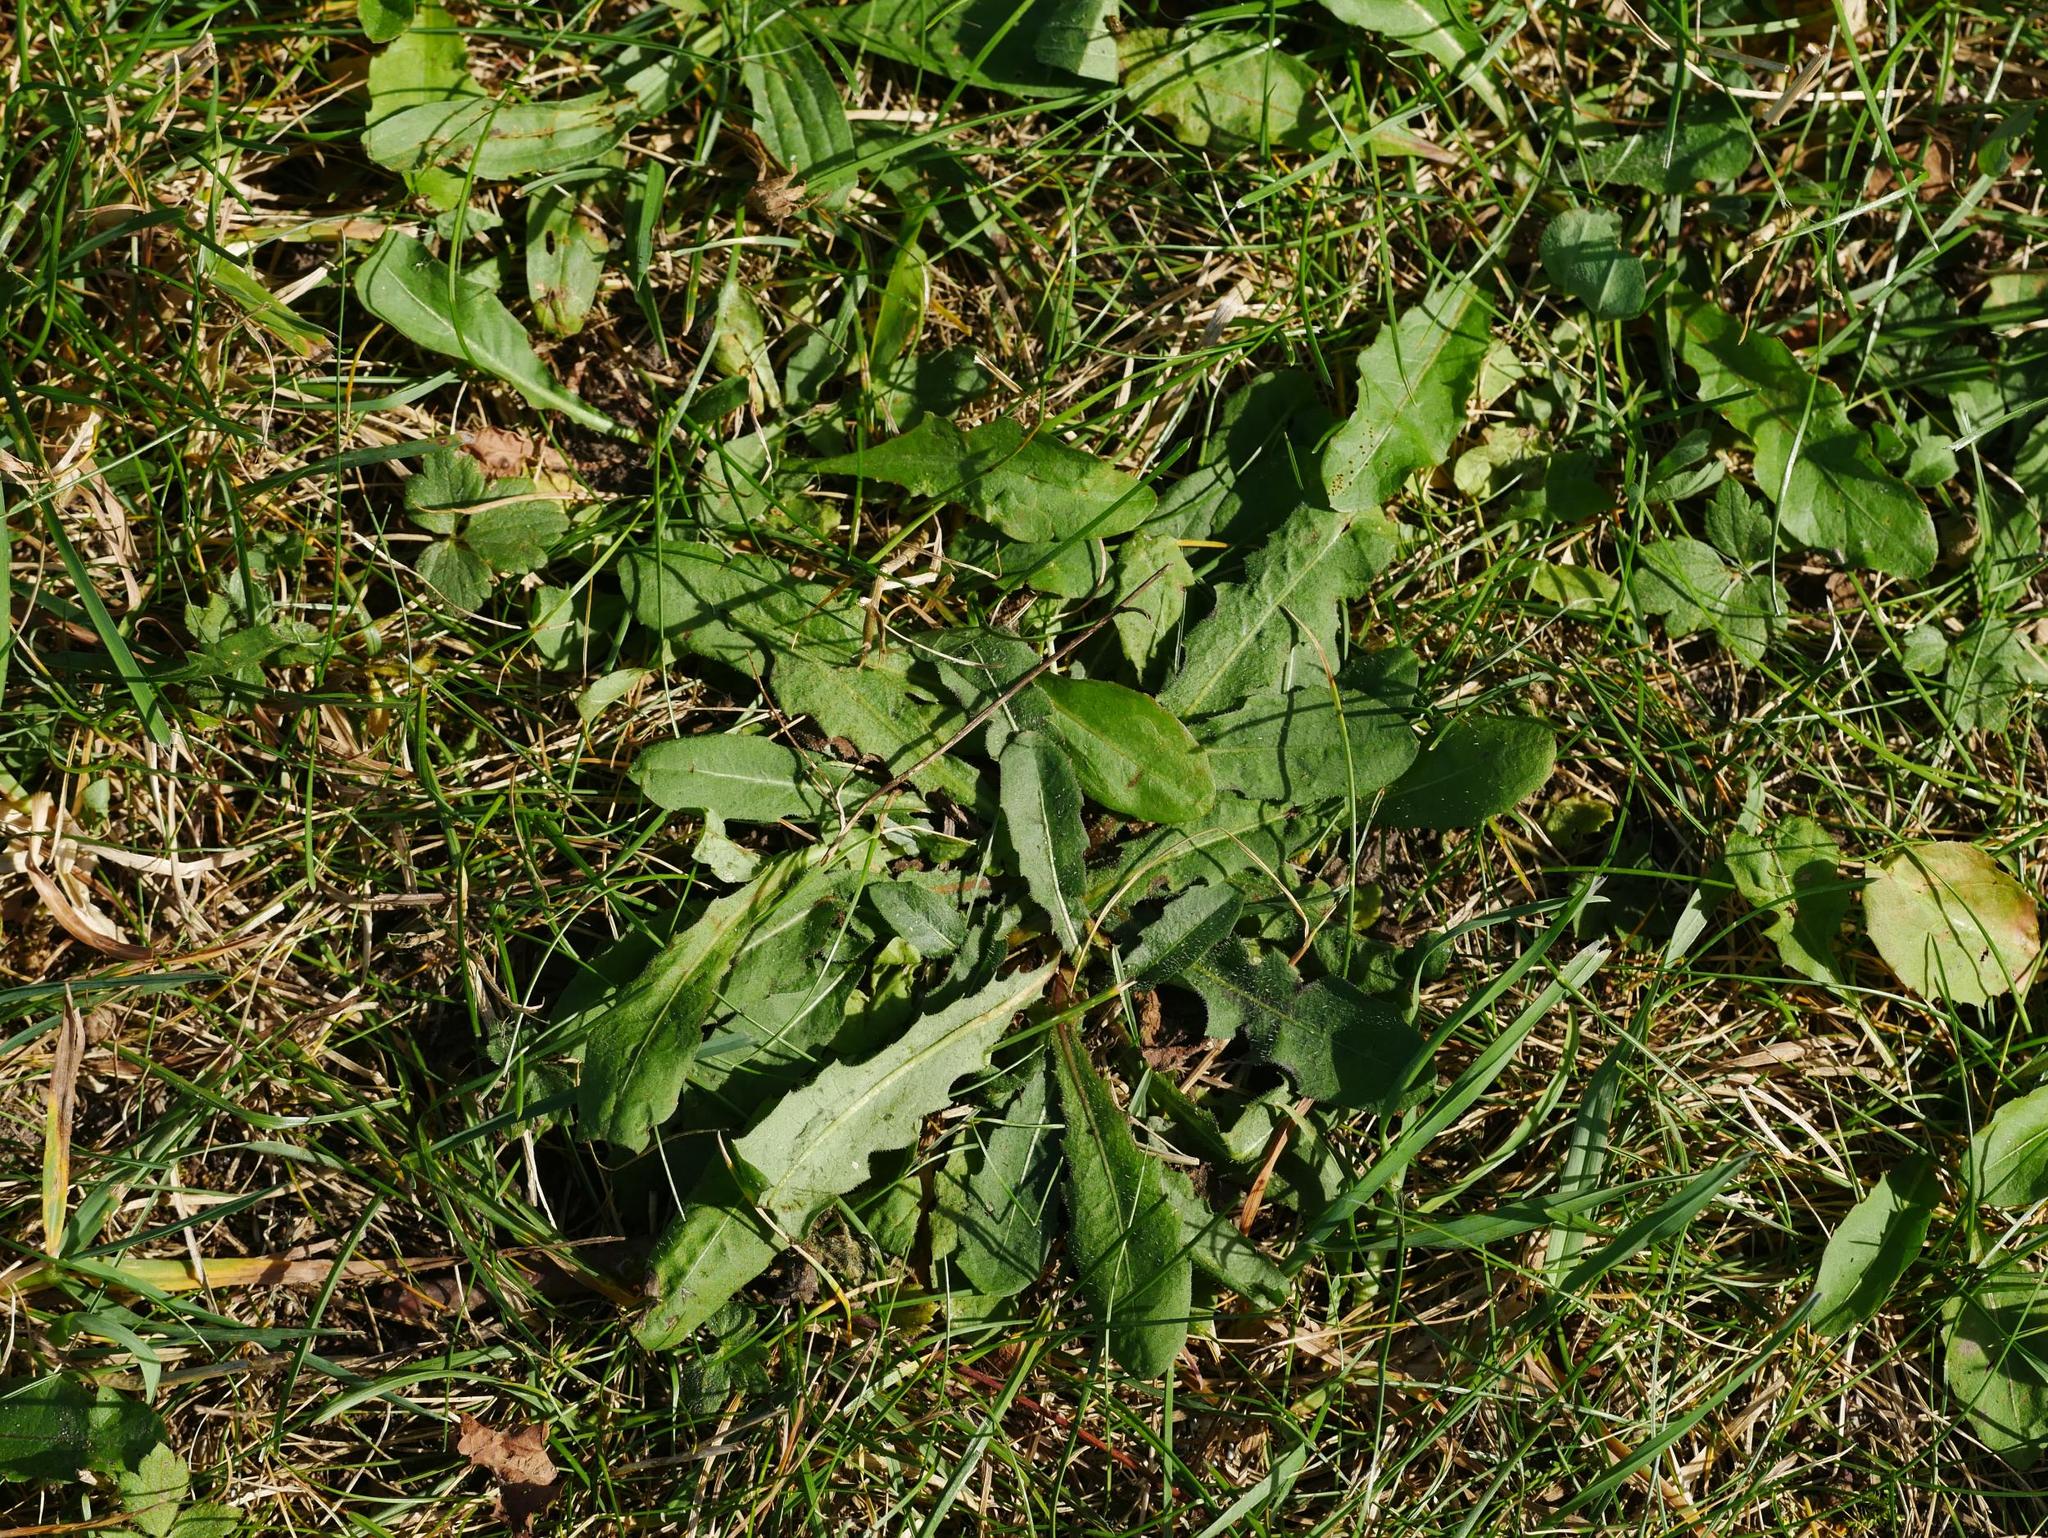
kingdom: Plantae
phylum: Tracheophyta
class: Magnoliopsida
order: Asterales
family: Asteraceae
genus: Hypochaeris
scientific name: Hypochaeris radicata
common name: Flatweed
